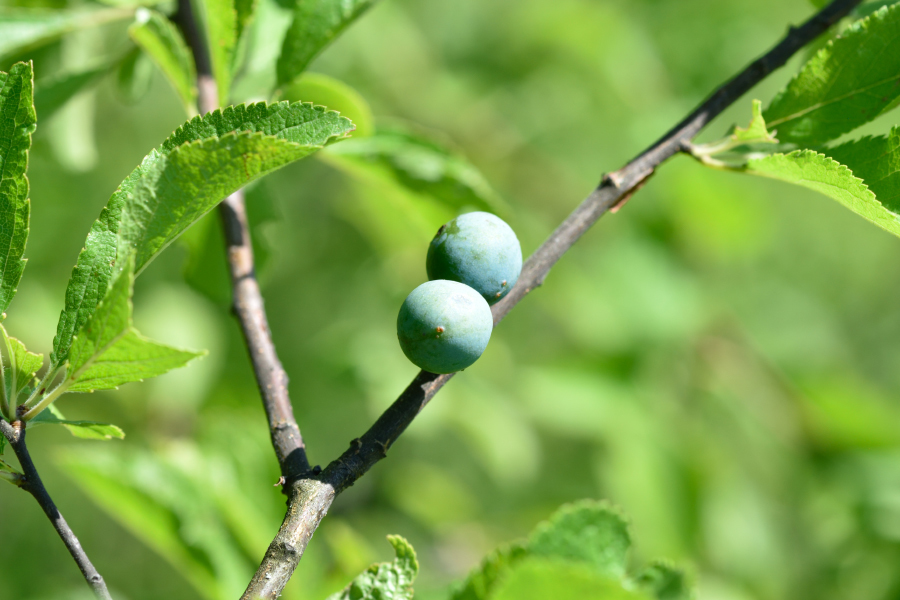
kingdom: Plantae
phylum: Tracheophyta
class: Magnoliopsida
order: Rosales
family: Rosaceae
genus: Prunus
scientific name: Prunus spinosa
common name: Blackthorn
